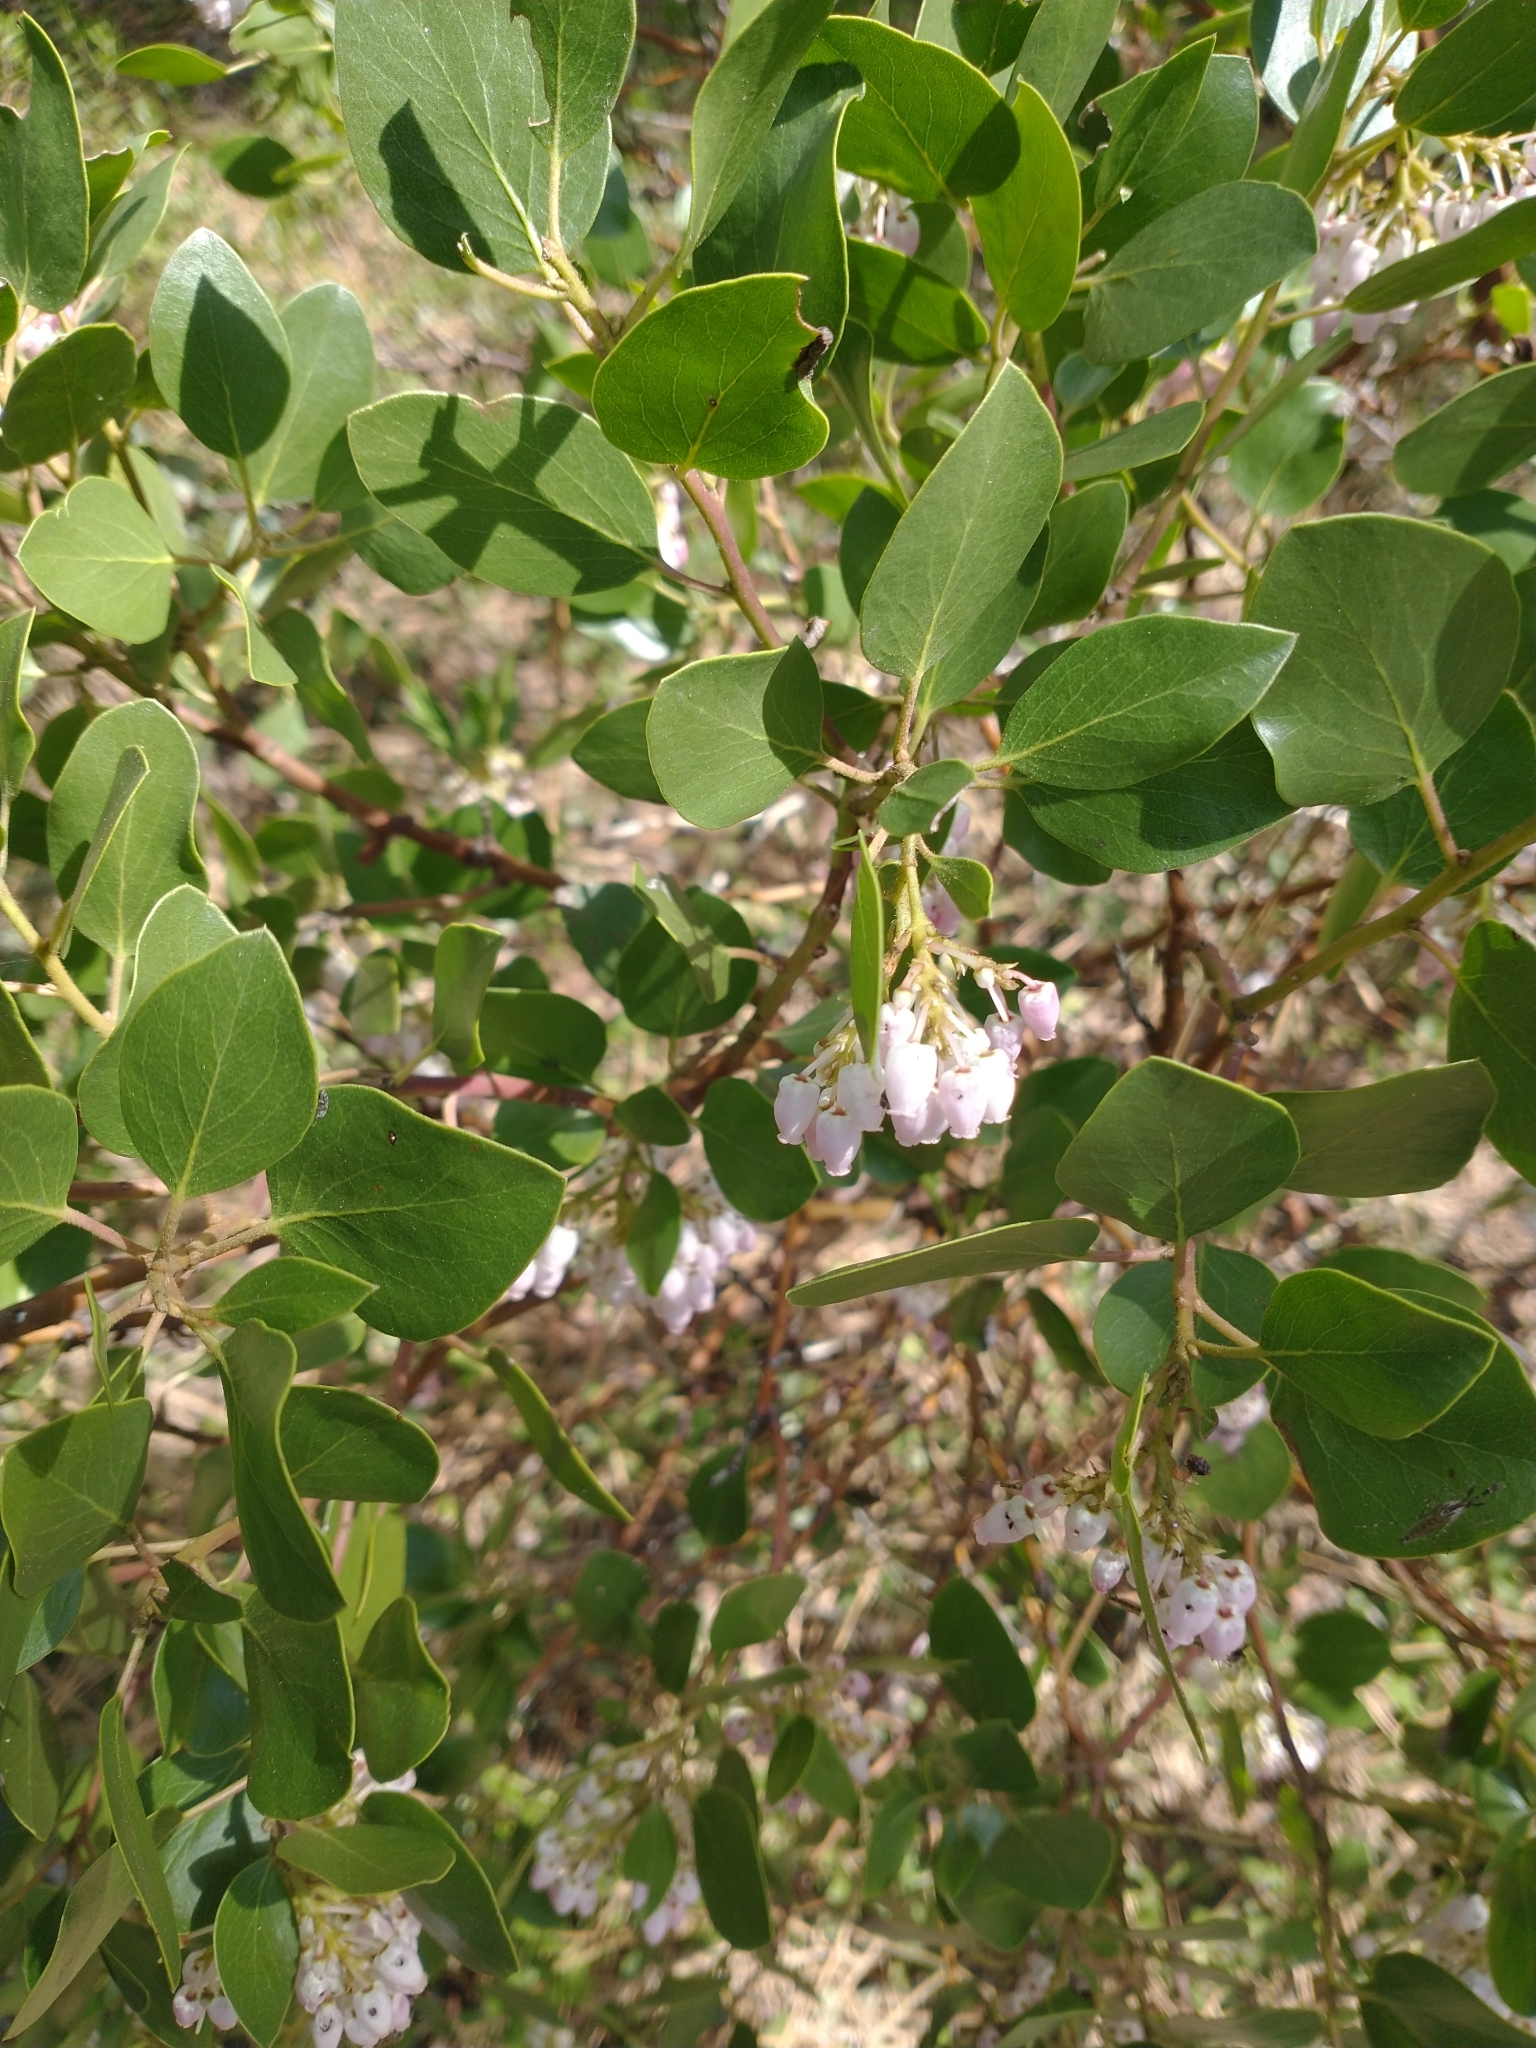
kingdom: Plantae
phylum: Tracheophyta
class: Magnoliopsida
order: Ericales
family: Ericaceae
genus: Arctostaphylos
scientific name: Arctostaphylos patula
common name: Green-leaf manzanita
